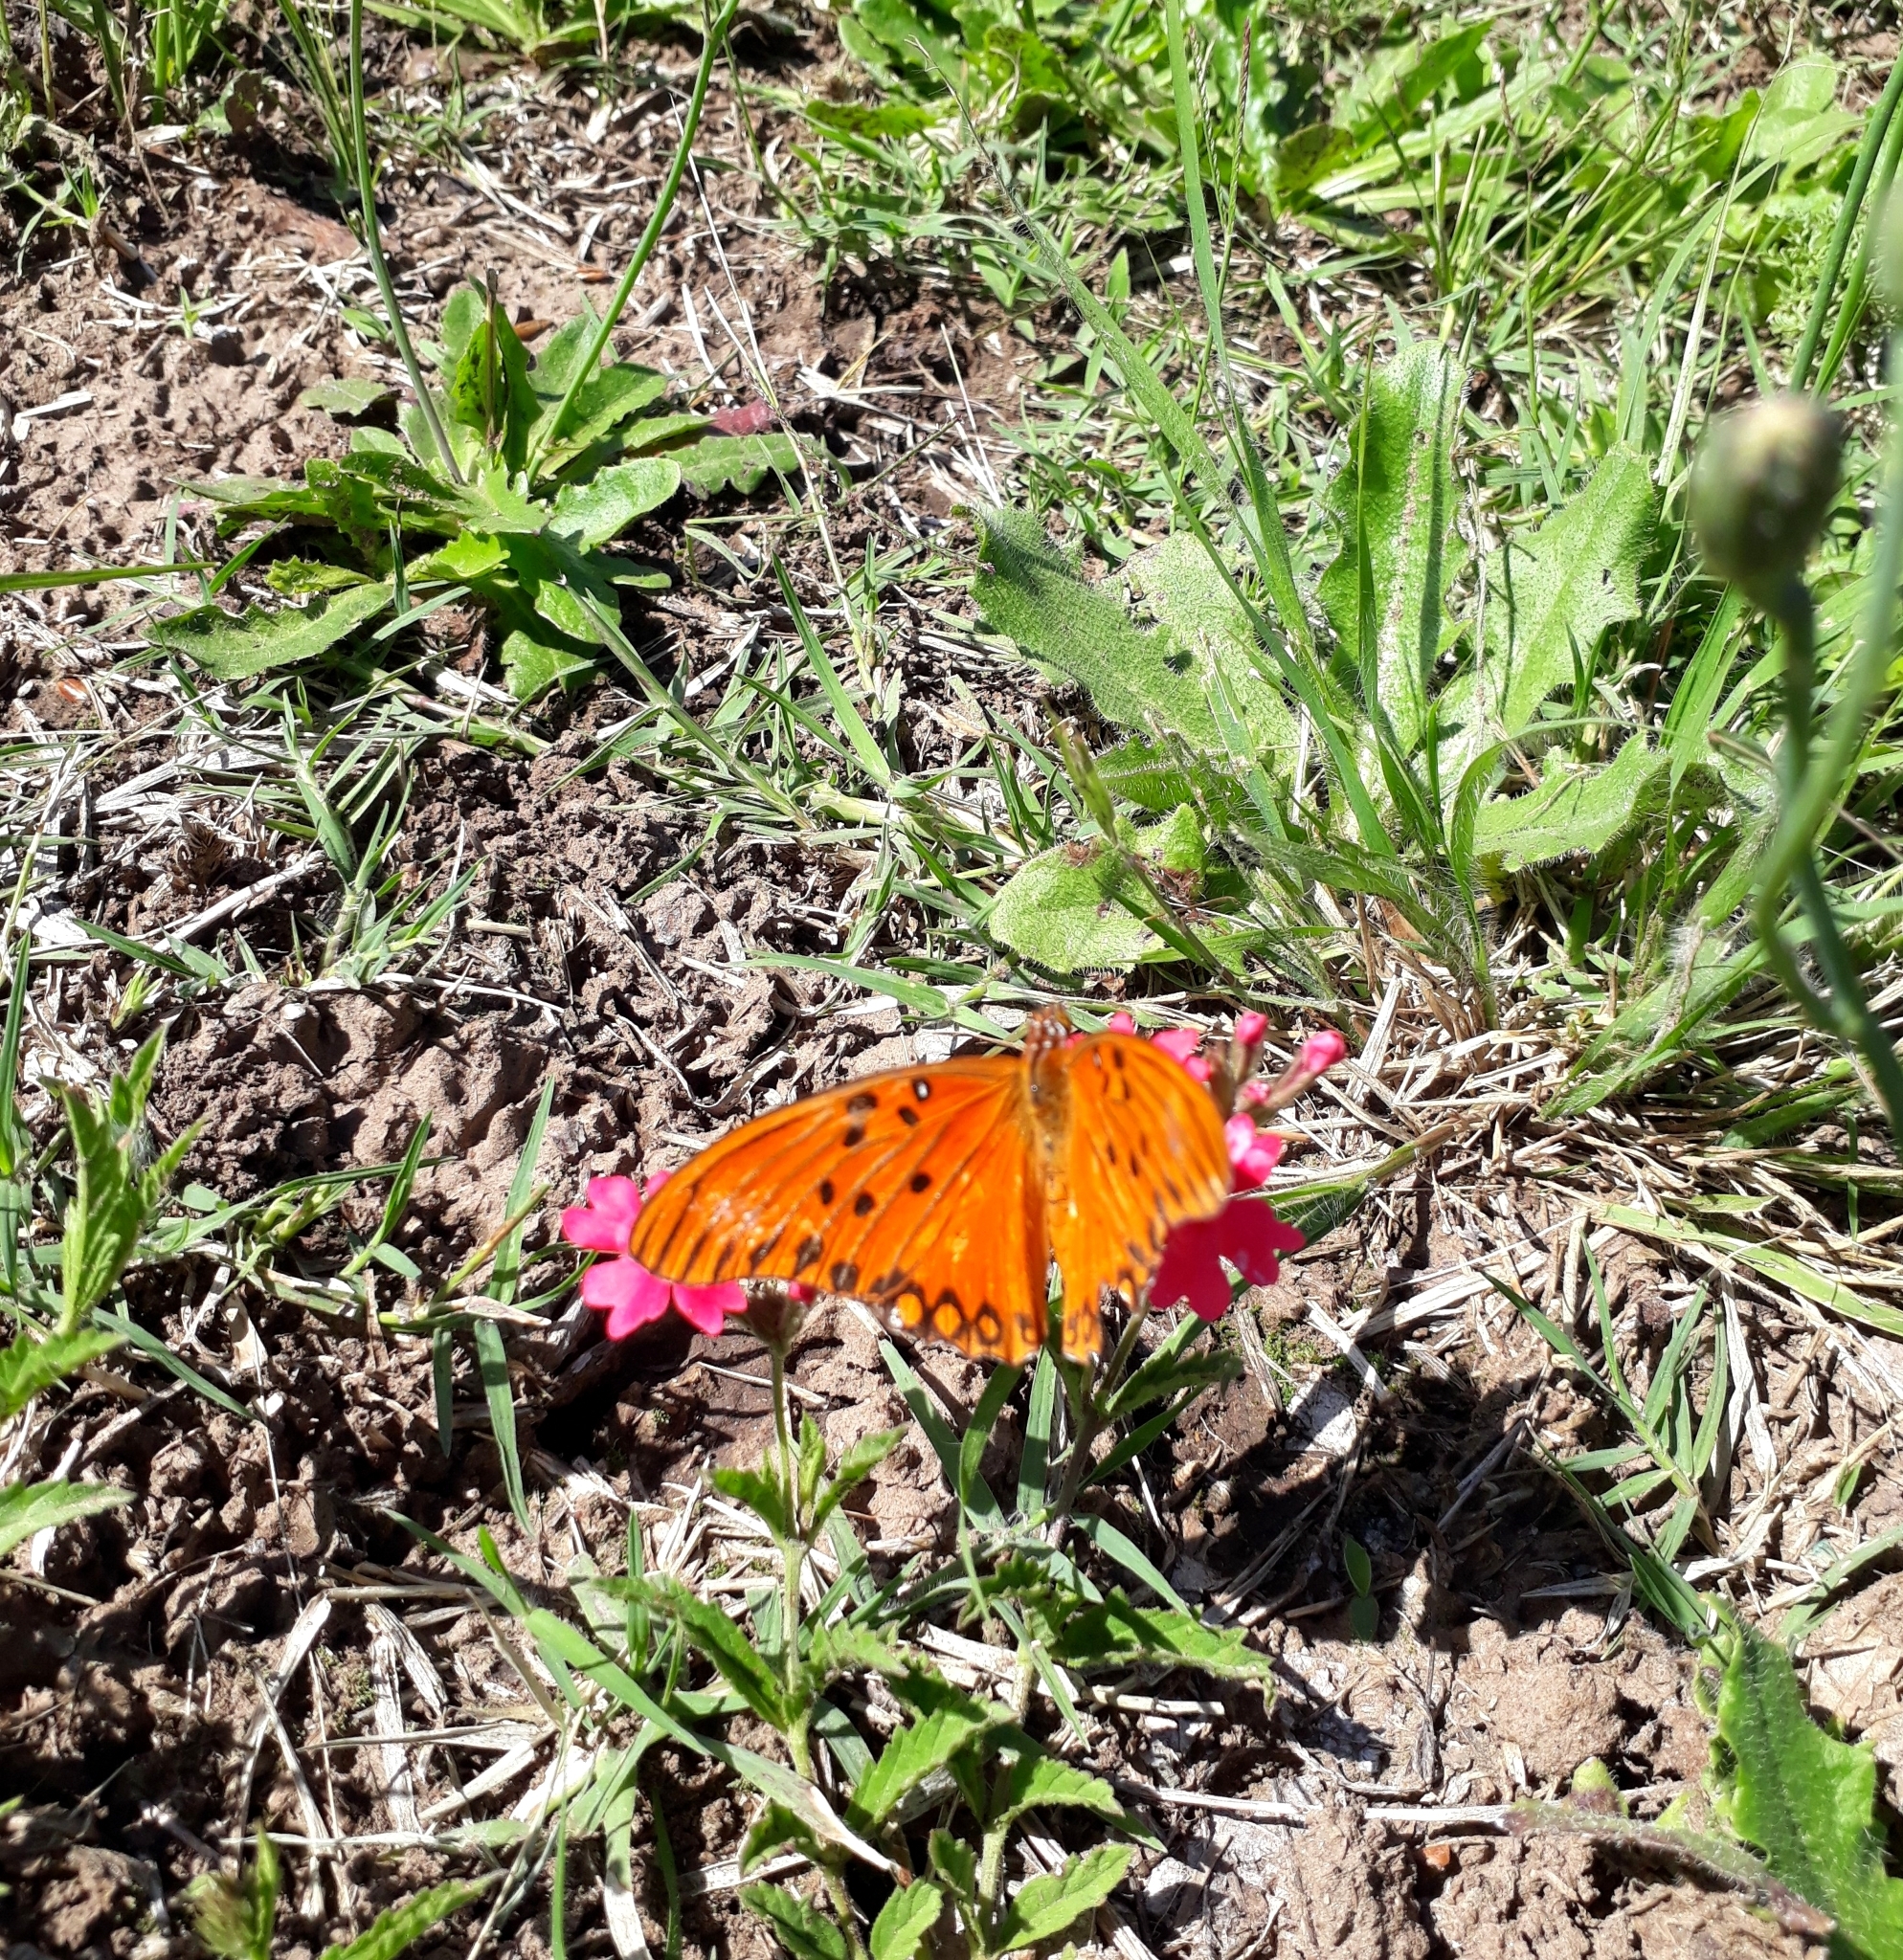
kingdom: Animalia
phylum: Arthropoda
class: Insecta
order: Lepidoptera
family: Nymphalidae
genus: Dione
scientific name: Dione vanillae
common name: Gulf fritillary
